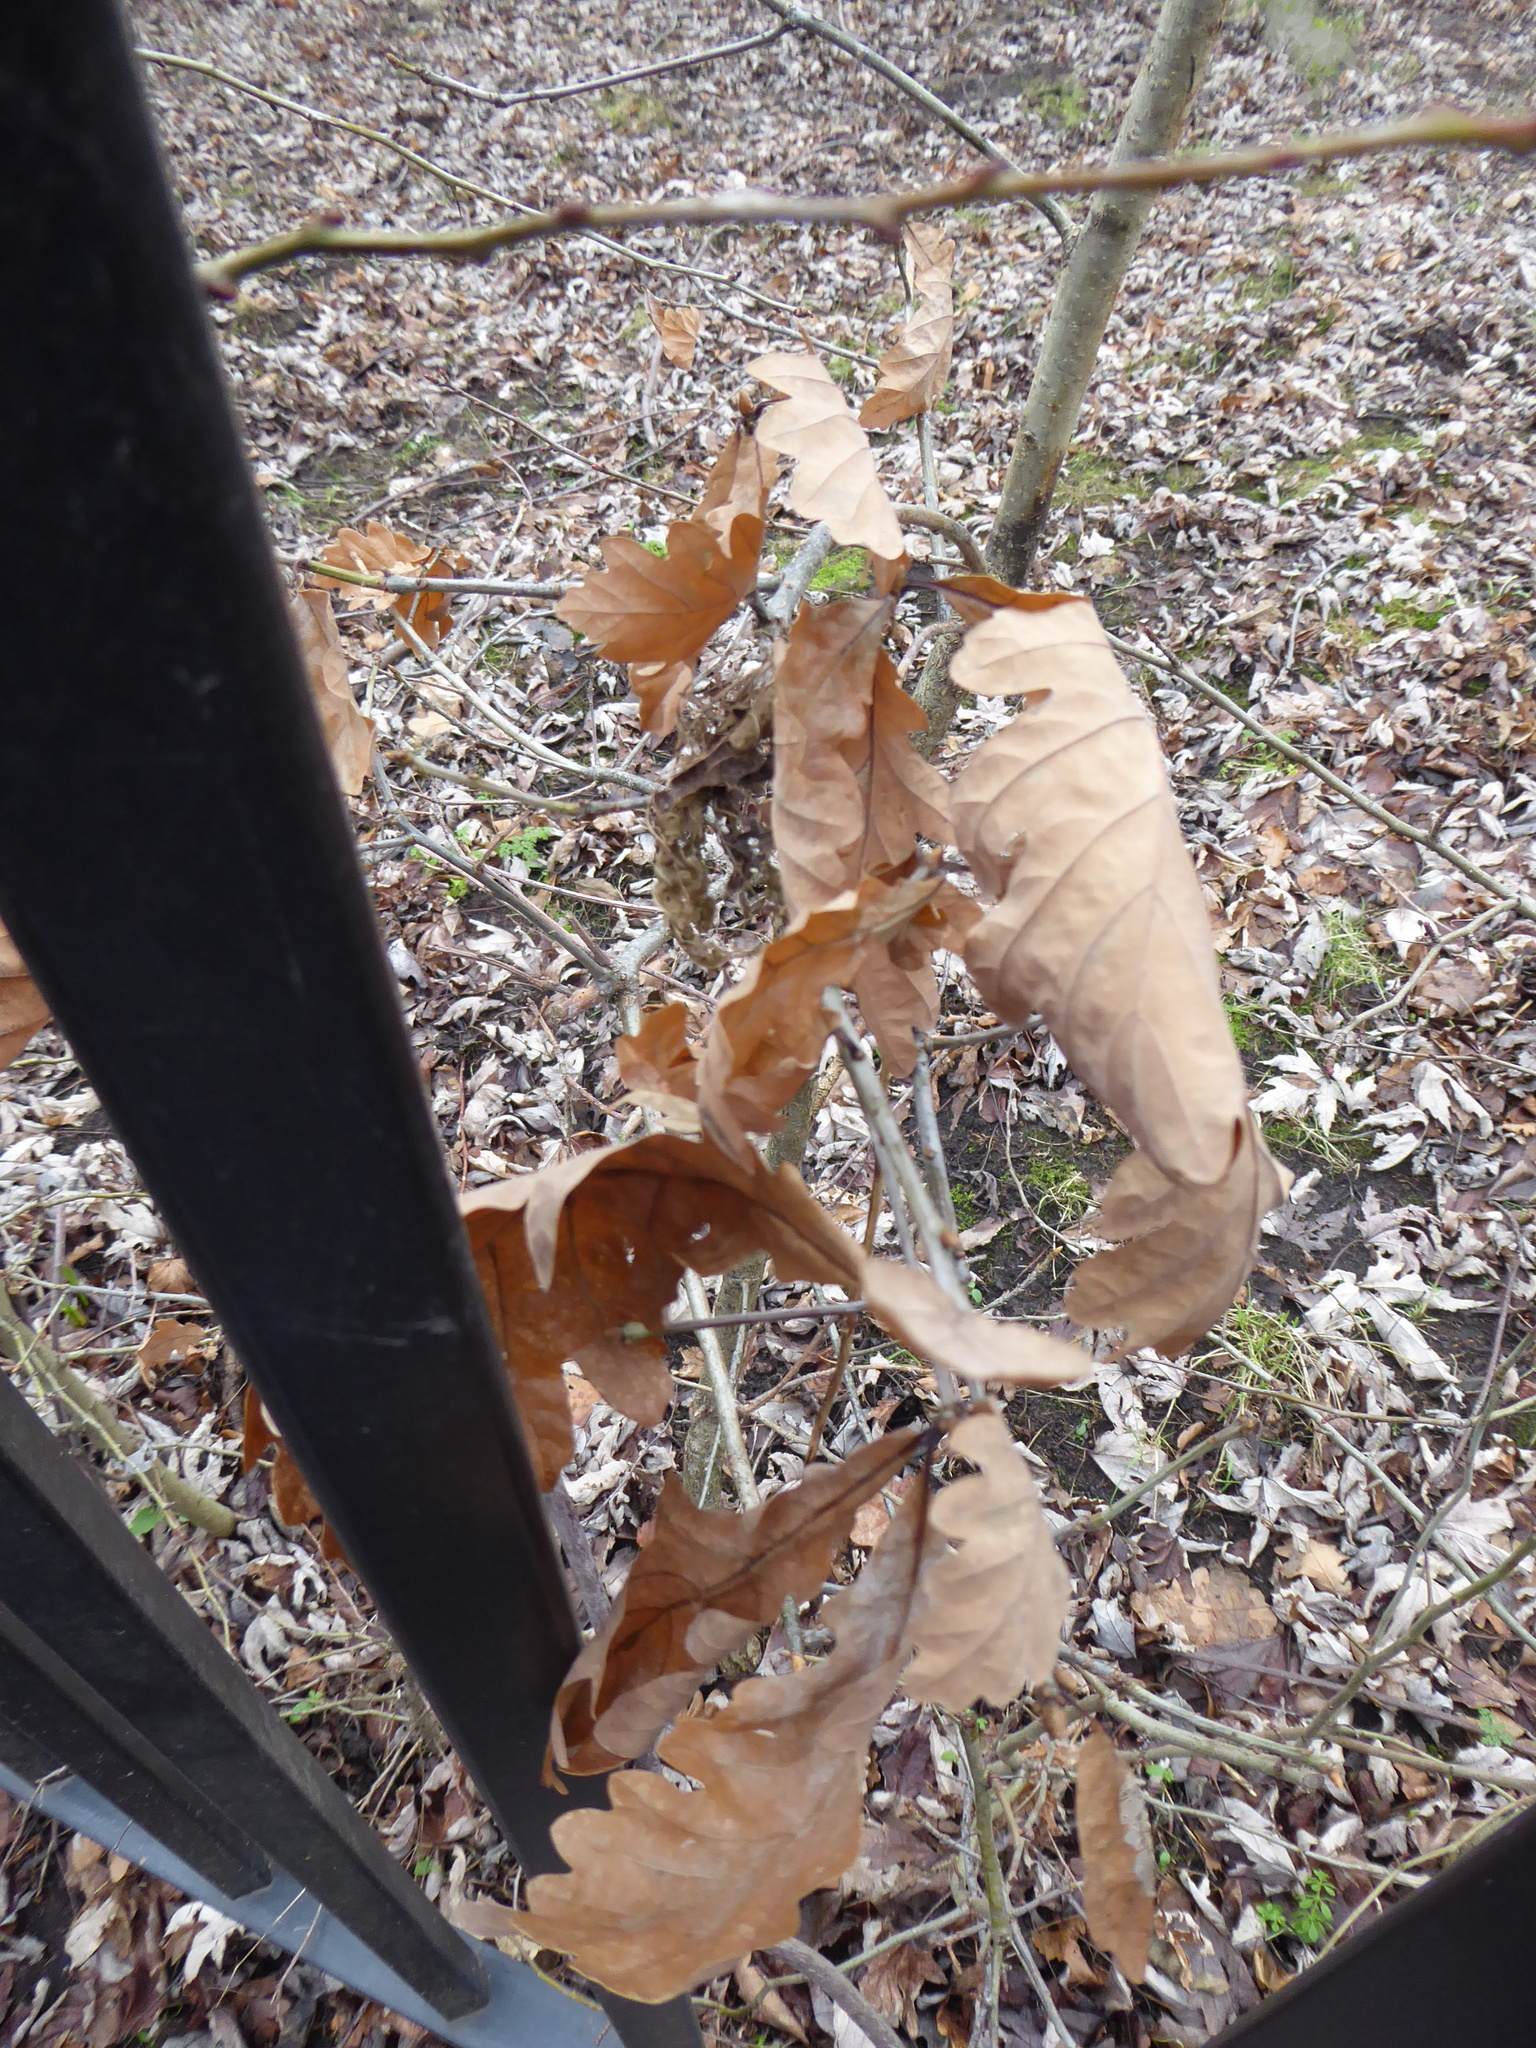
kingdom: Plantae
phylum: Tracheophyta
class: Magnoliopsida
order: Fagales
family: Fagaceae
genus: Quercus
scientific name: Quercus petraea
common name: Sessile oak
